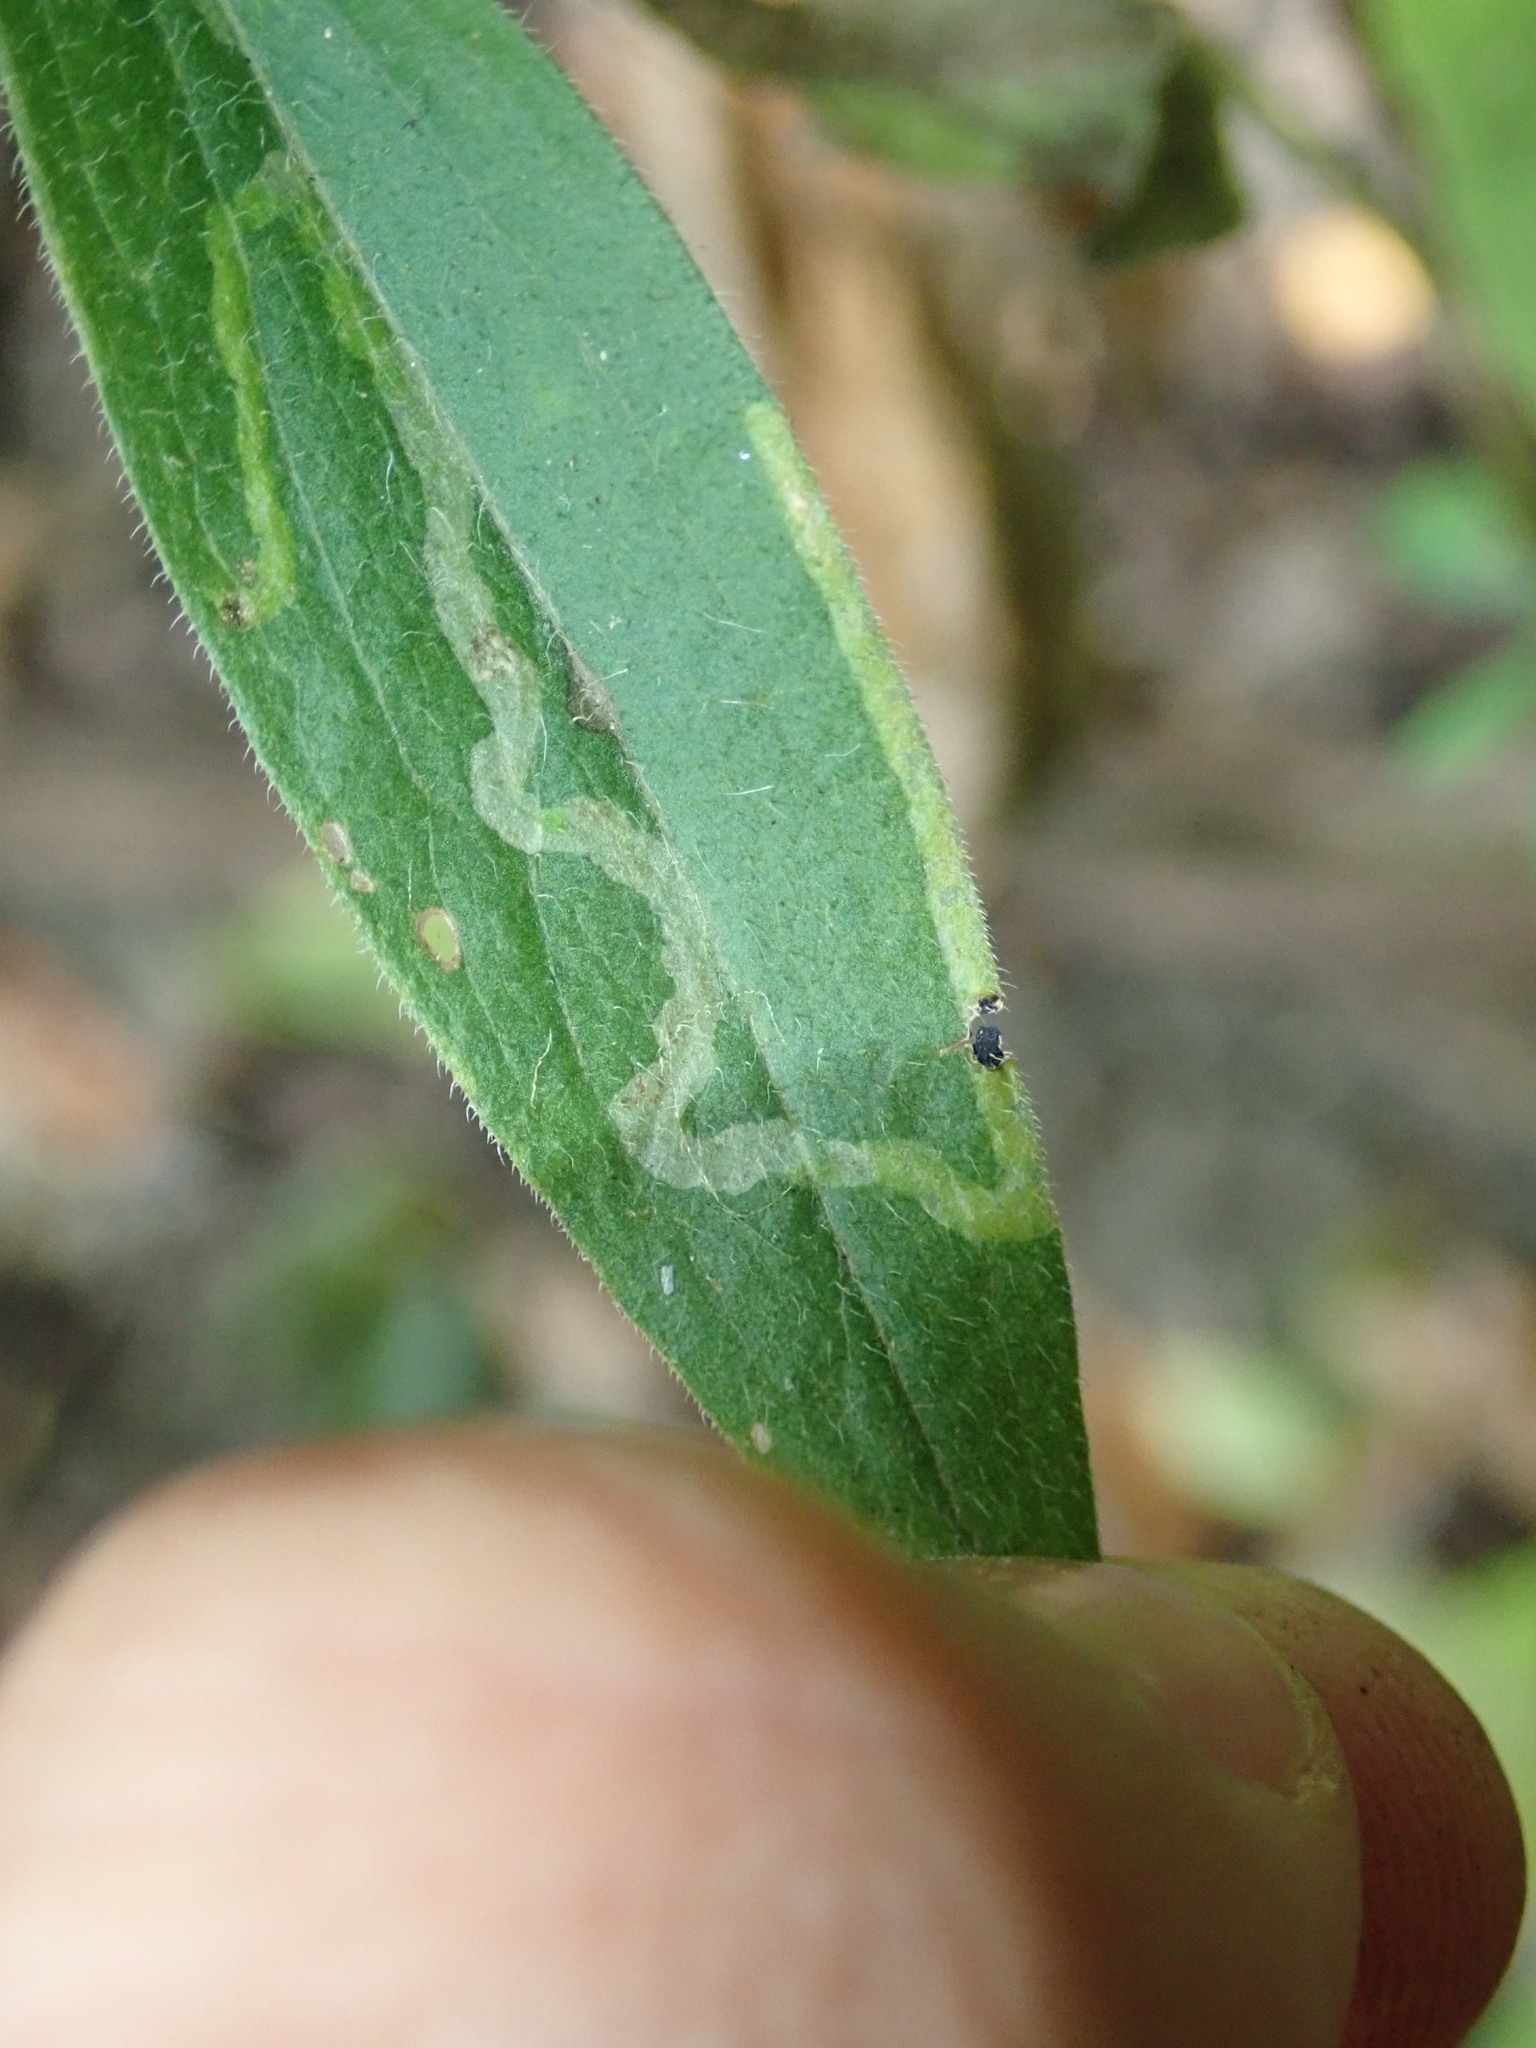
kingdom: Animalia
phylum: Arthropoda
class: Insecta
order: Diptera
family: Agromyzidae
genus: Ophiomyia
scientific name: Ophiomyia
